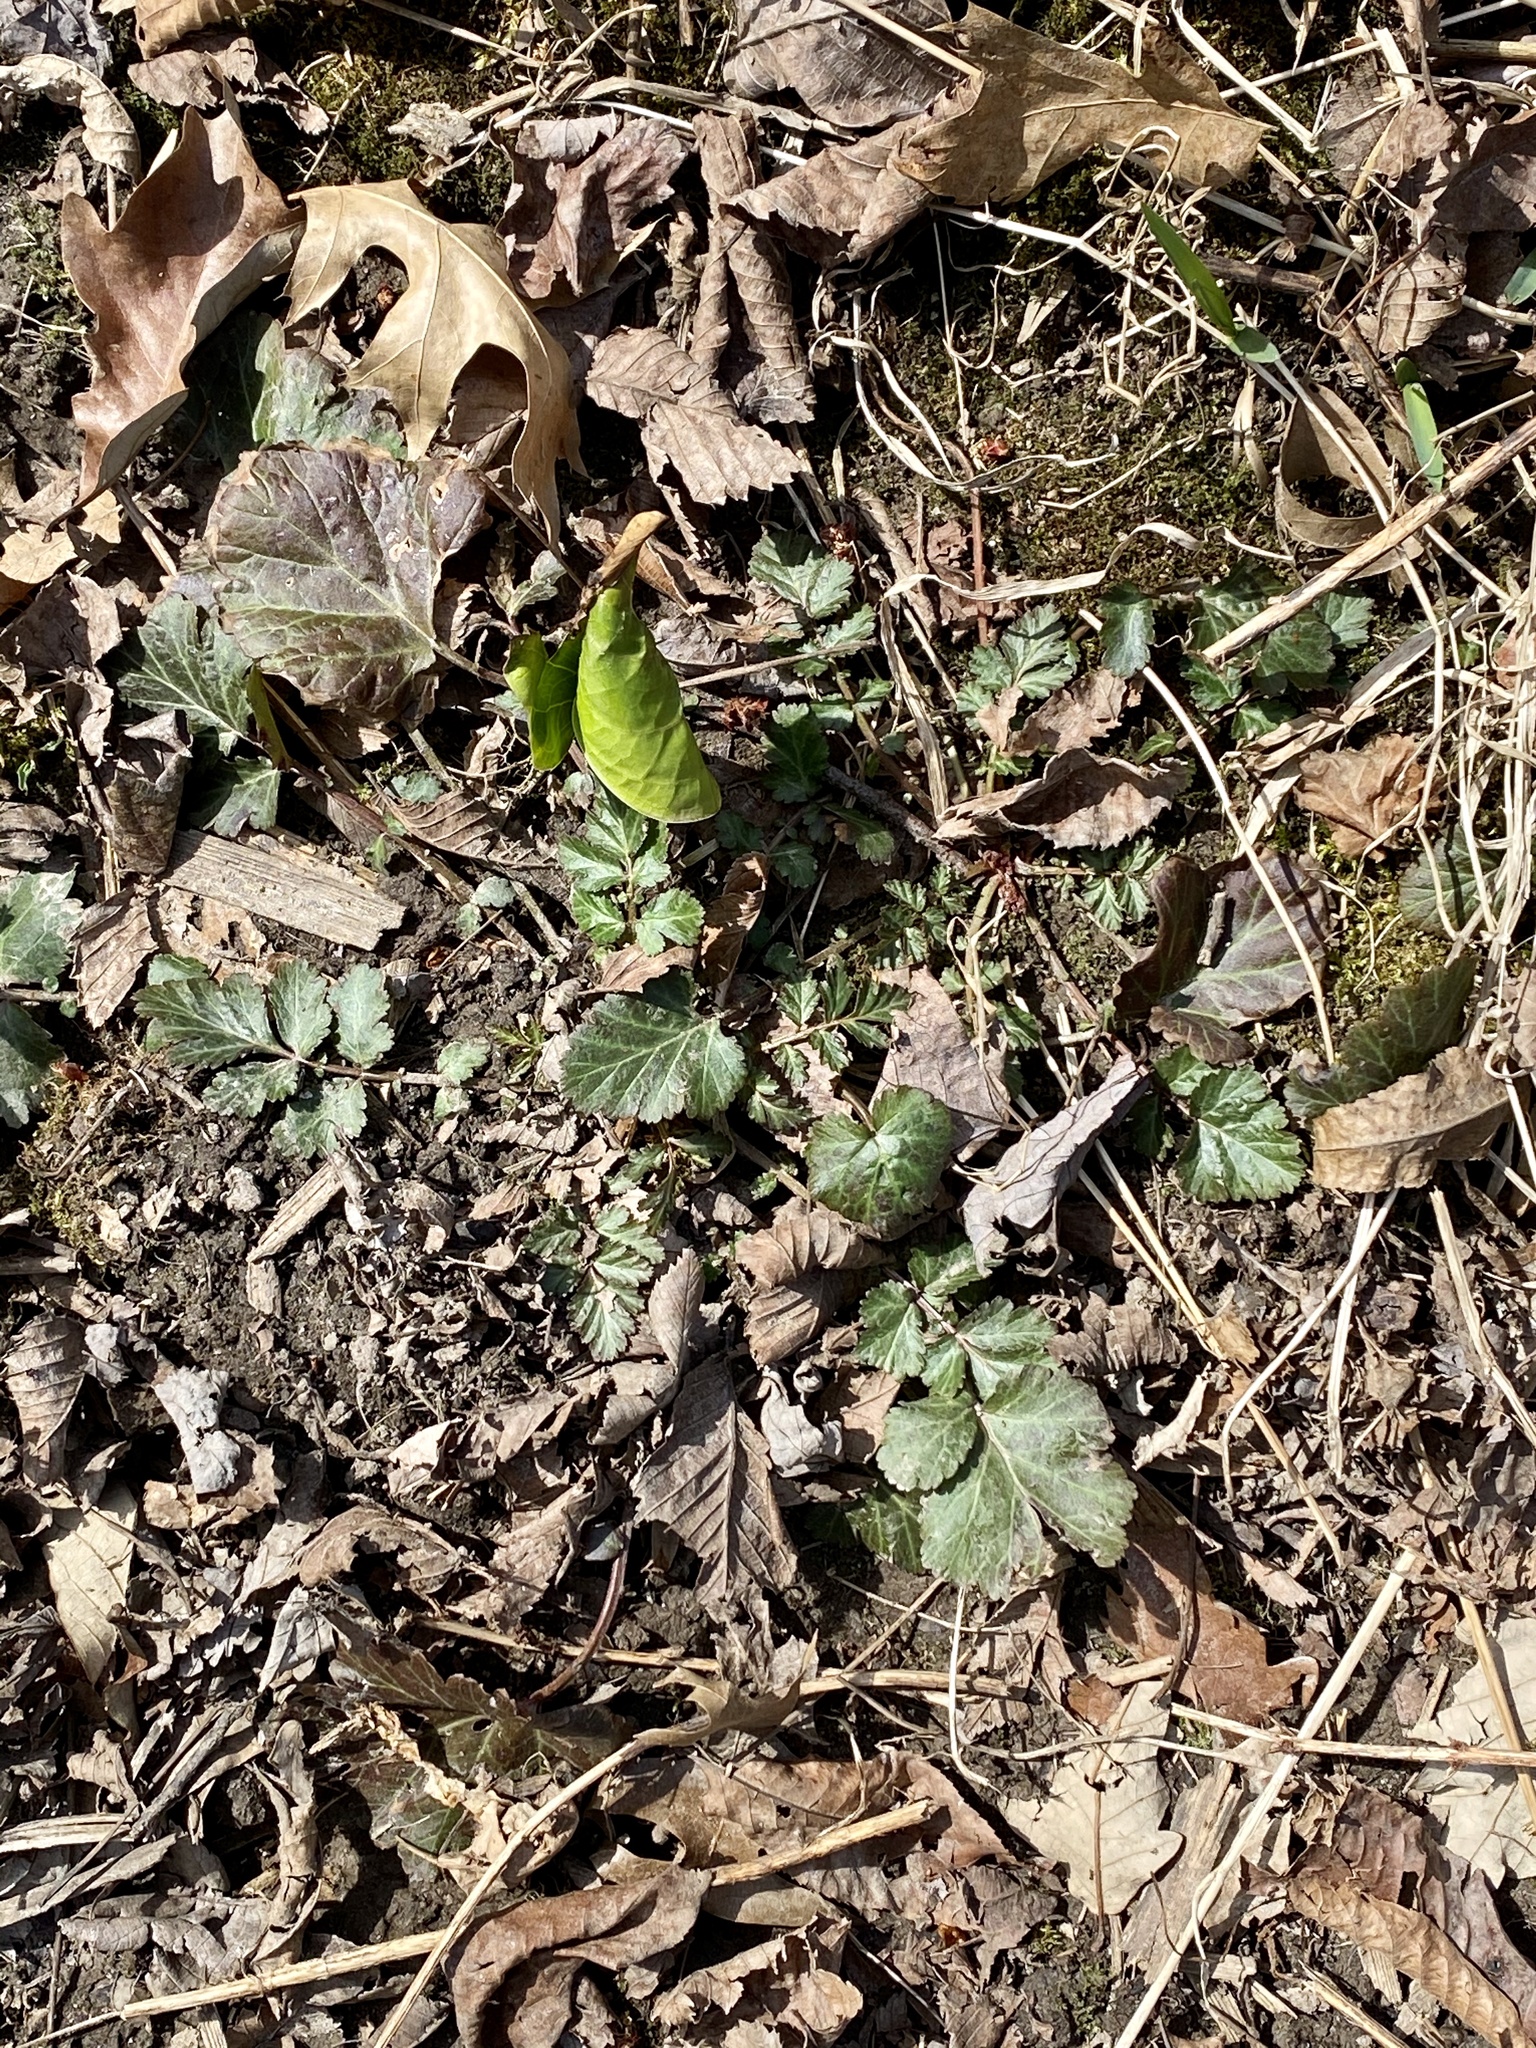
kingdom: Plantae
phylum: Tracheophyta
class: Magnoliopsida
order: Rosales
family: Rosaceae
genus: Geum
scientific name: Geum canadense
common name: White avens
